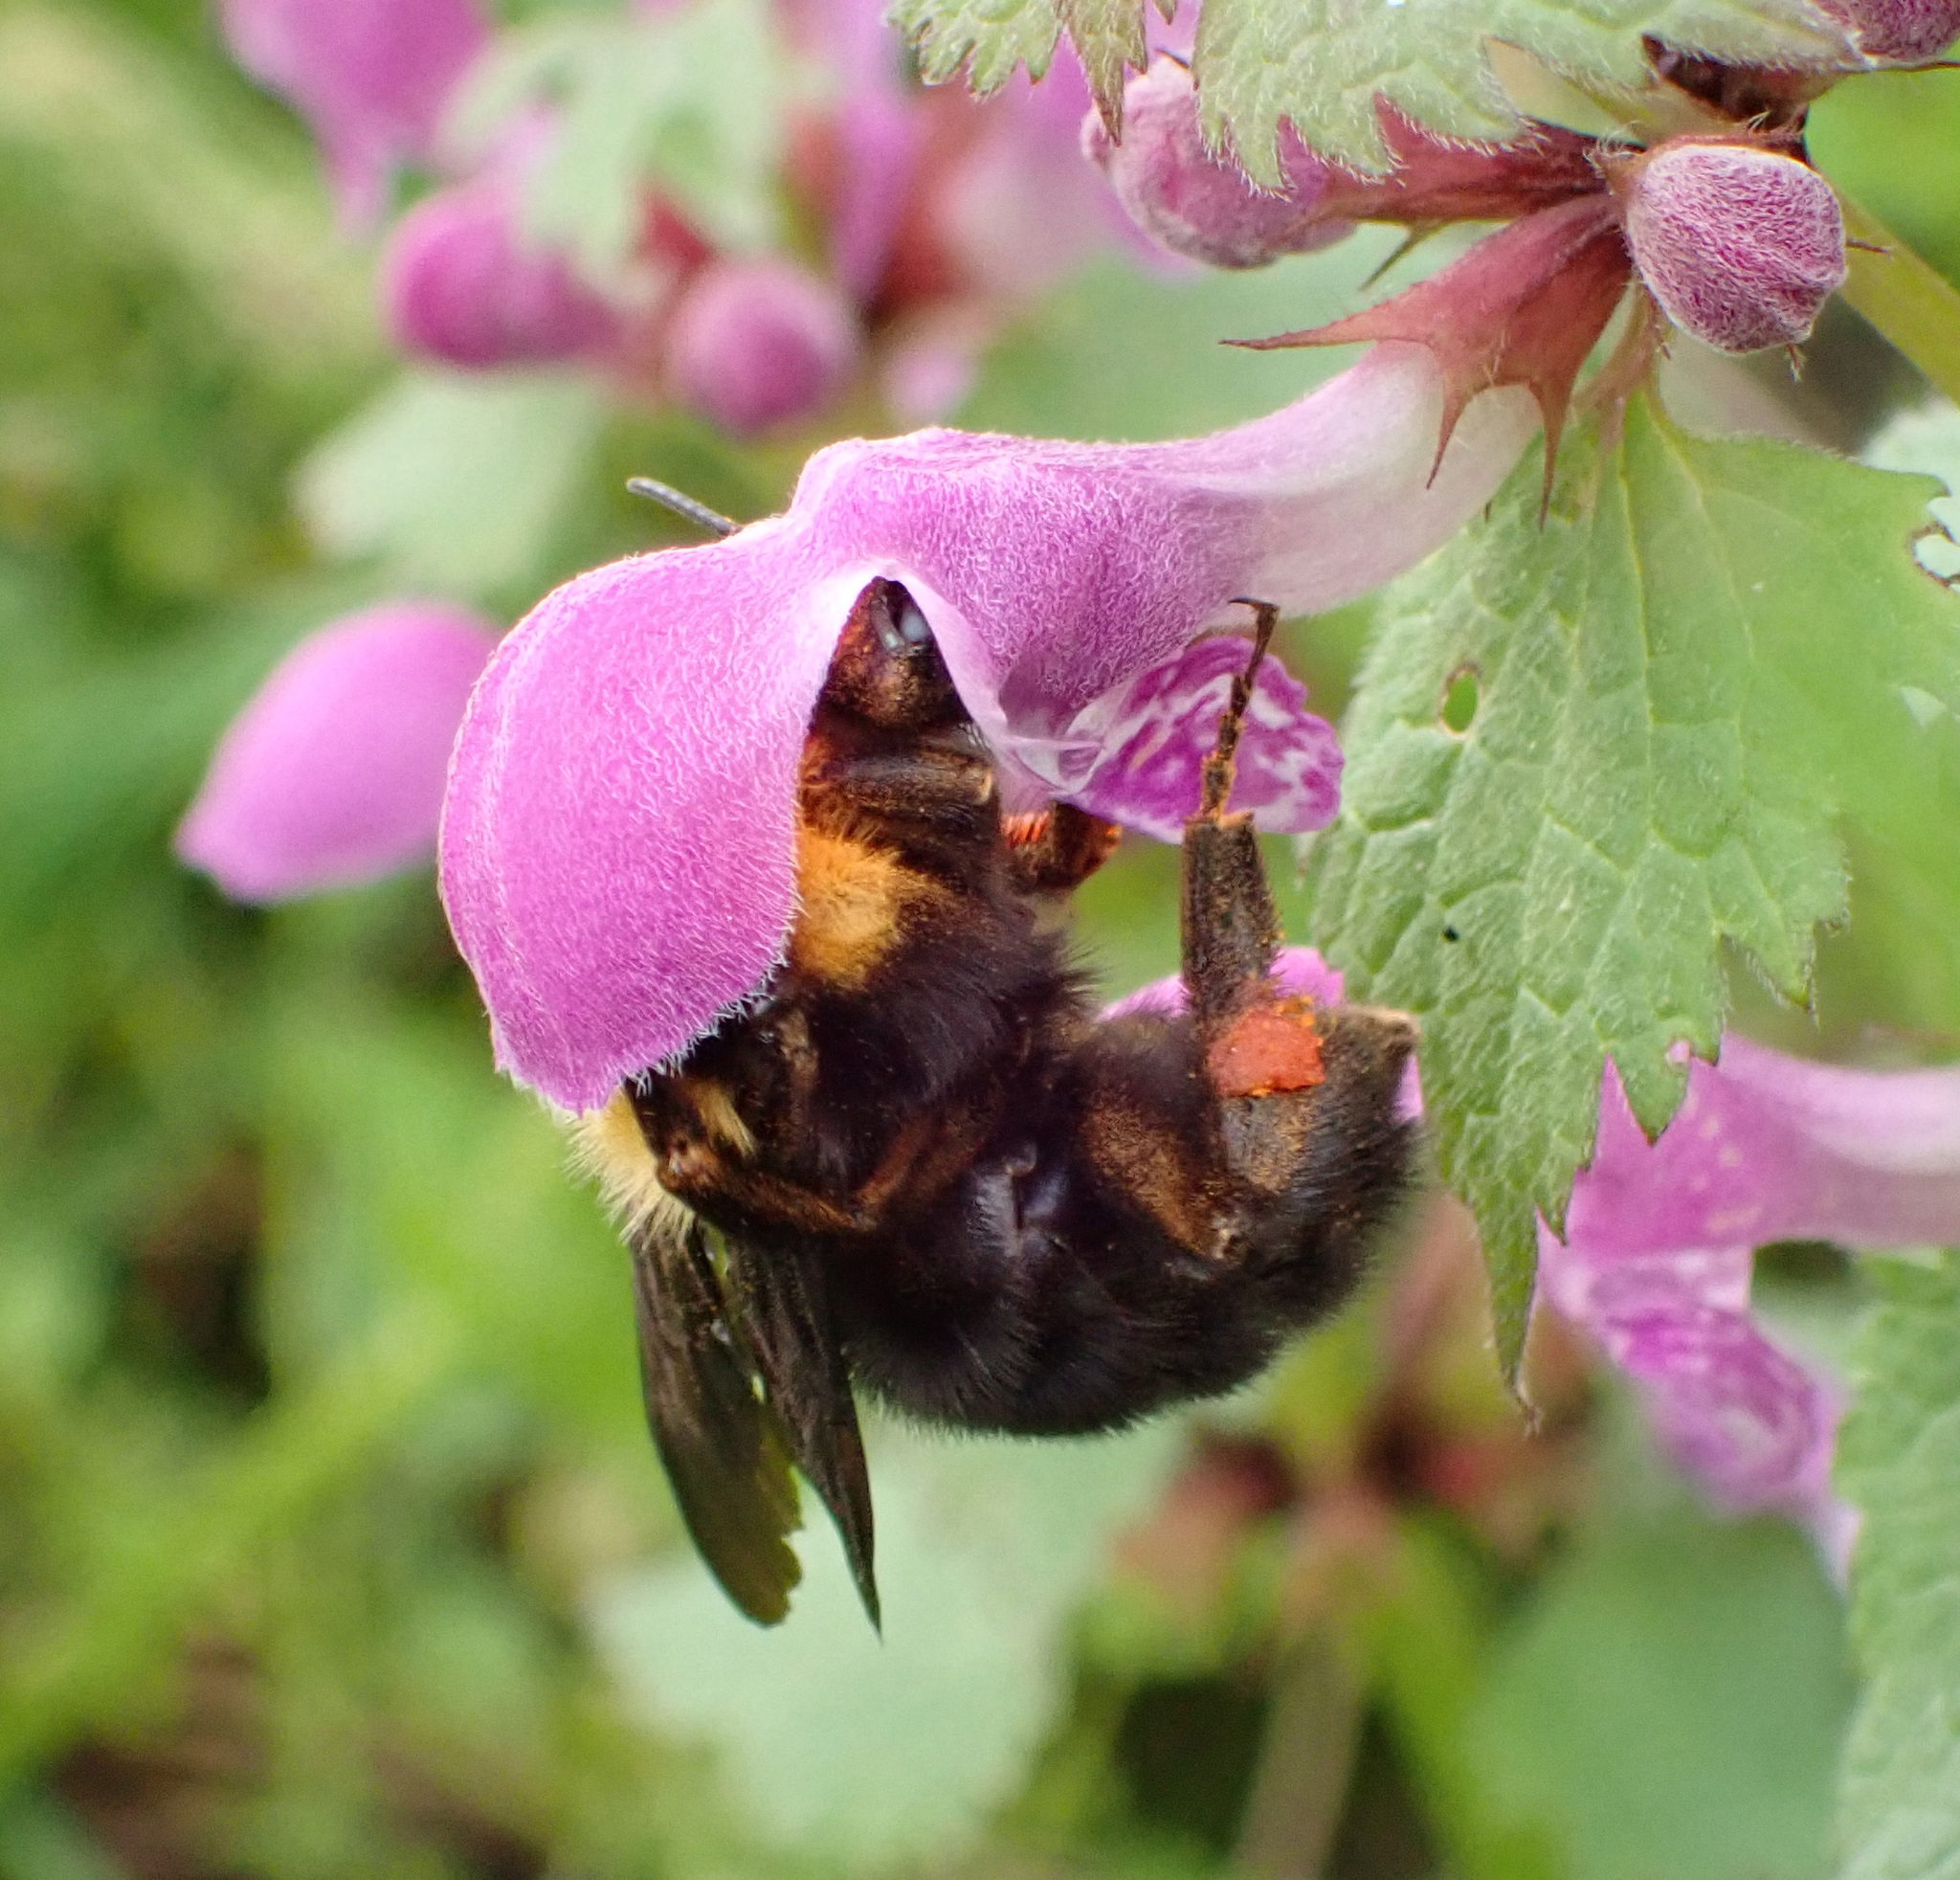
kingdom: Animalia
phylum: Arthropoda
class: Insecta
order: Hymenoptera
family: Apidae
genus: Bombus
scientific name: Bombus argillaceus
